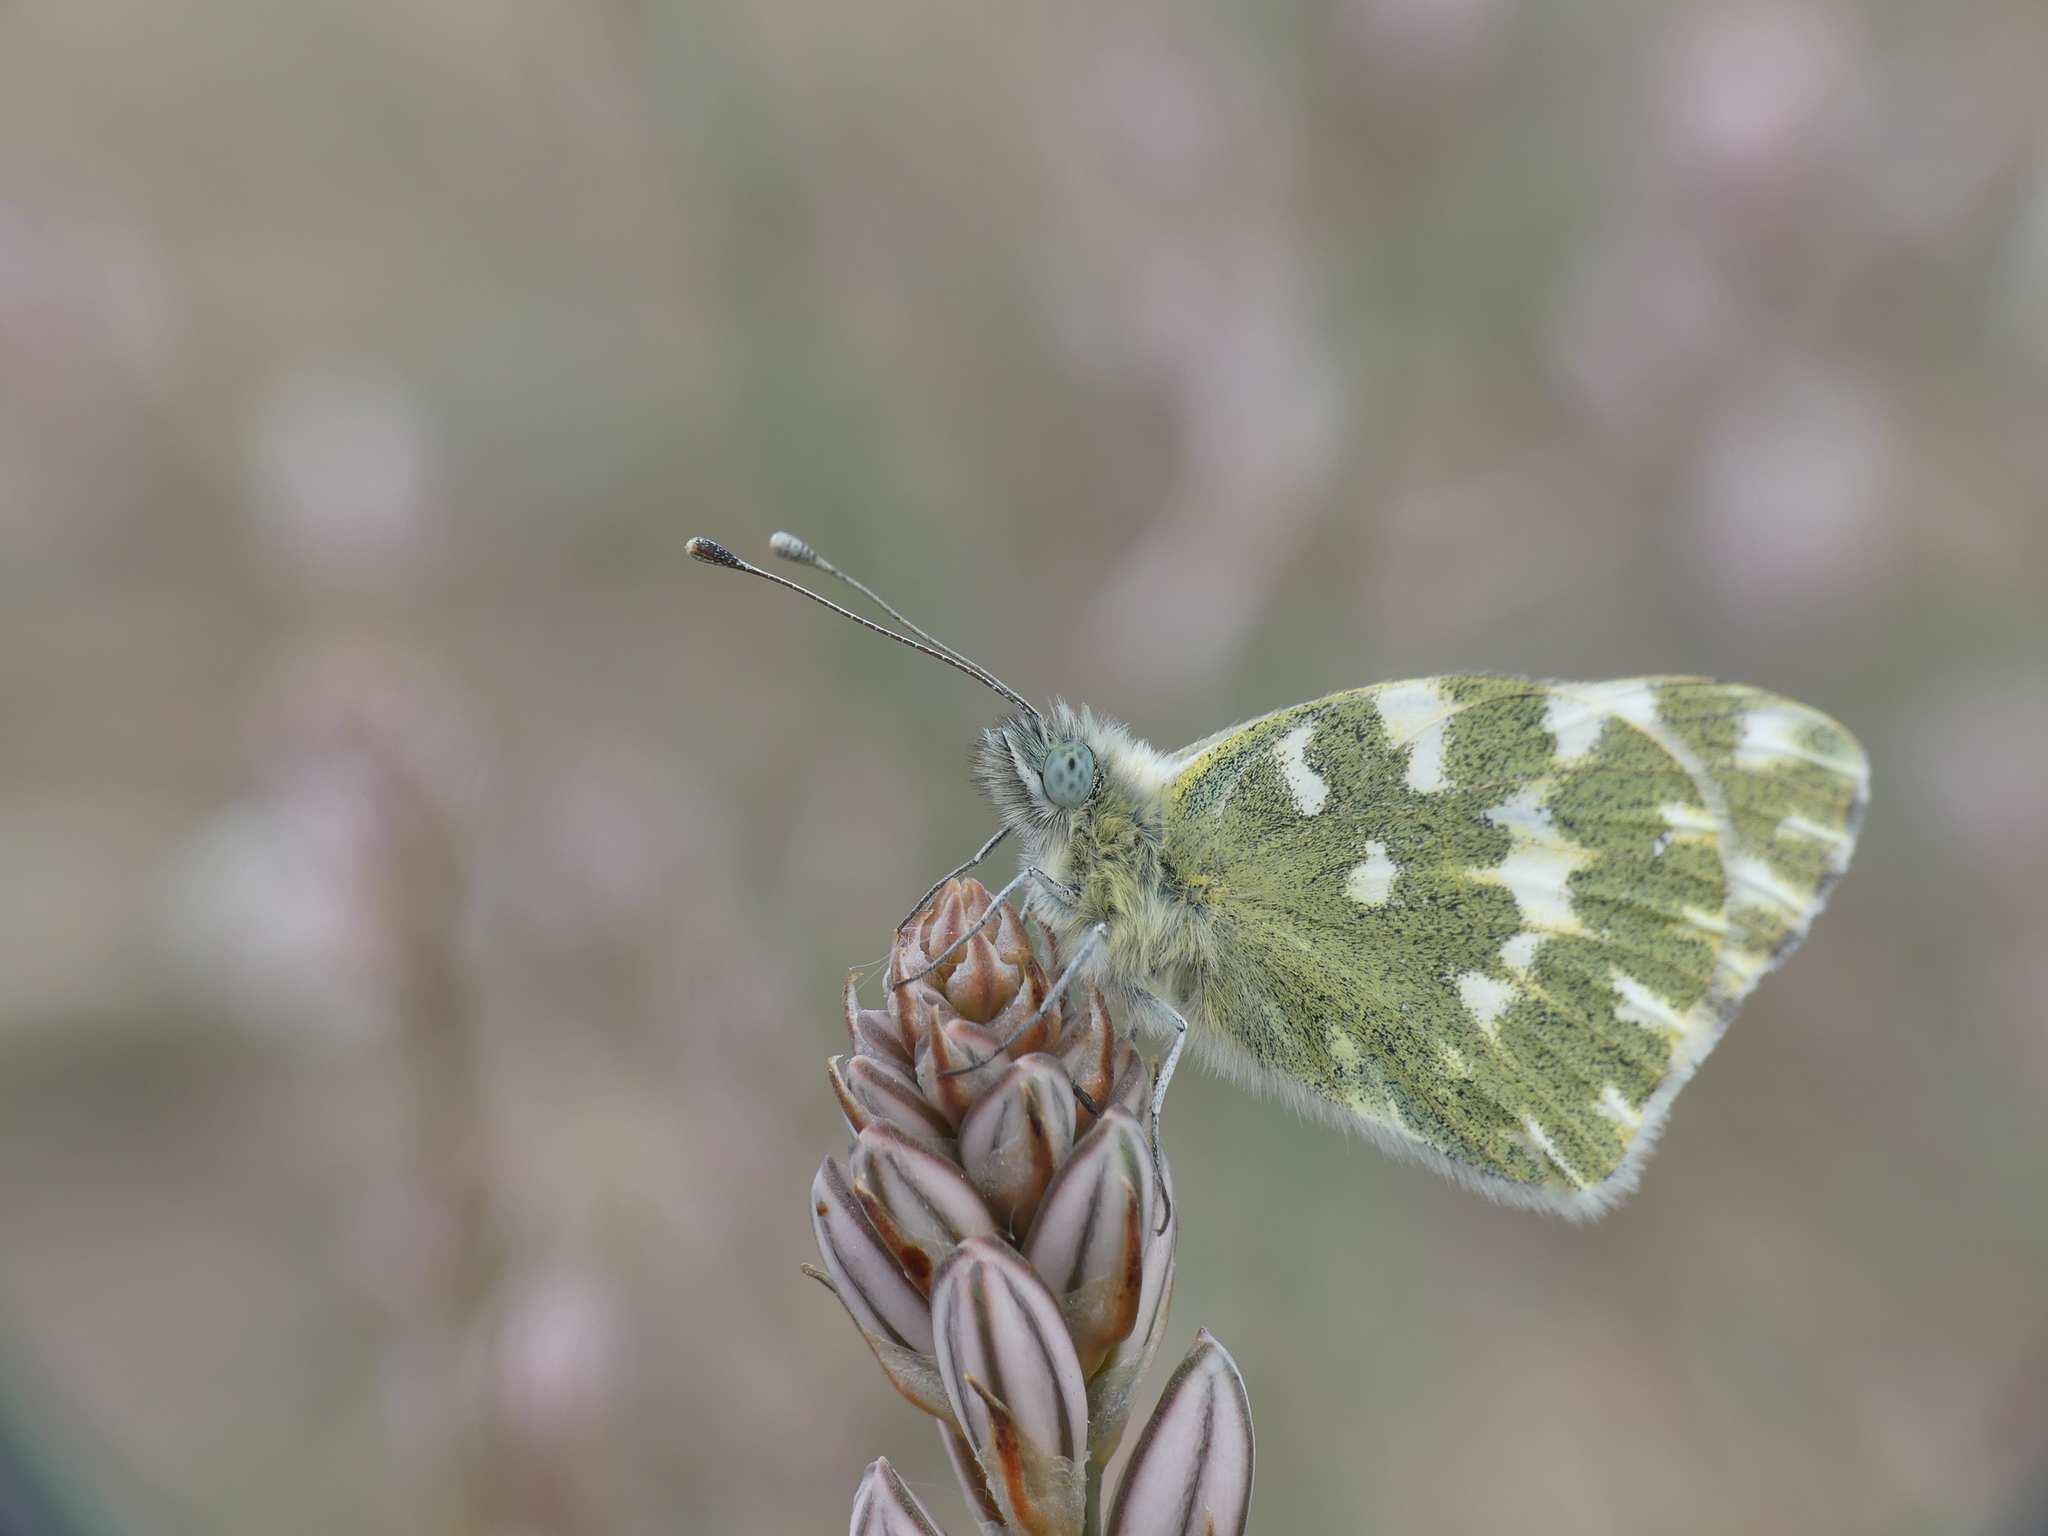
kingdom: Animalia
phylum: Arthropoda
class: Insecta
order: Lepidoptera
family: Pieridae
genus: Pontia
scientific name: Pontia daplidice
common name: Bath white
